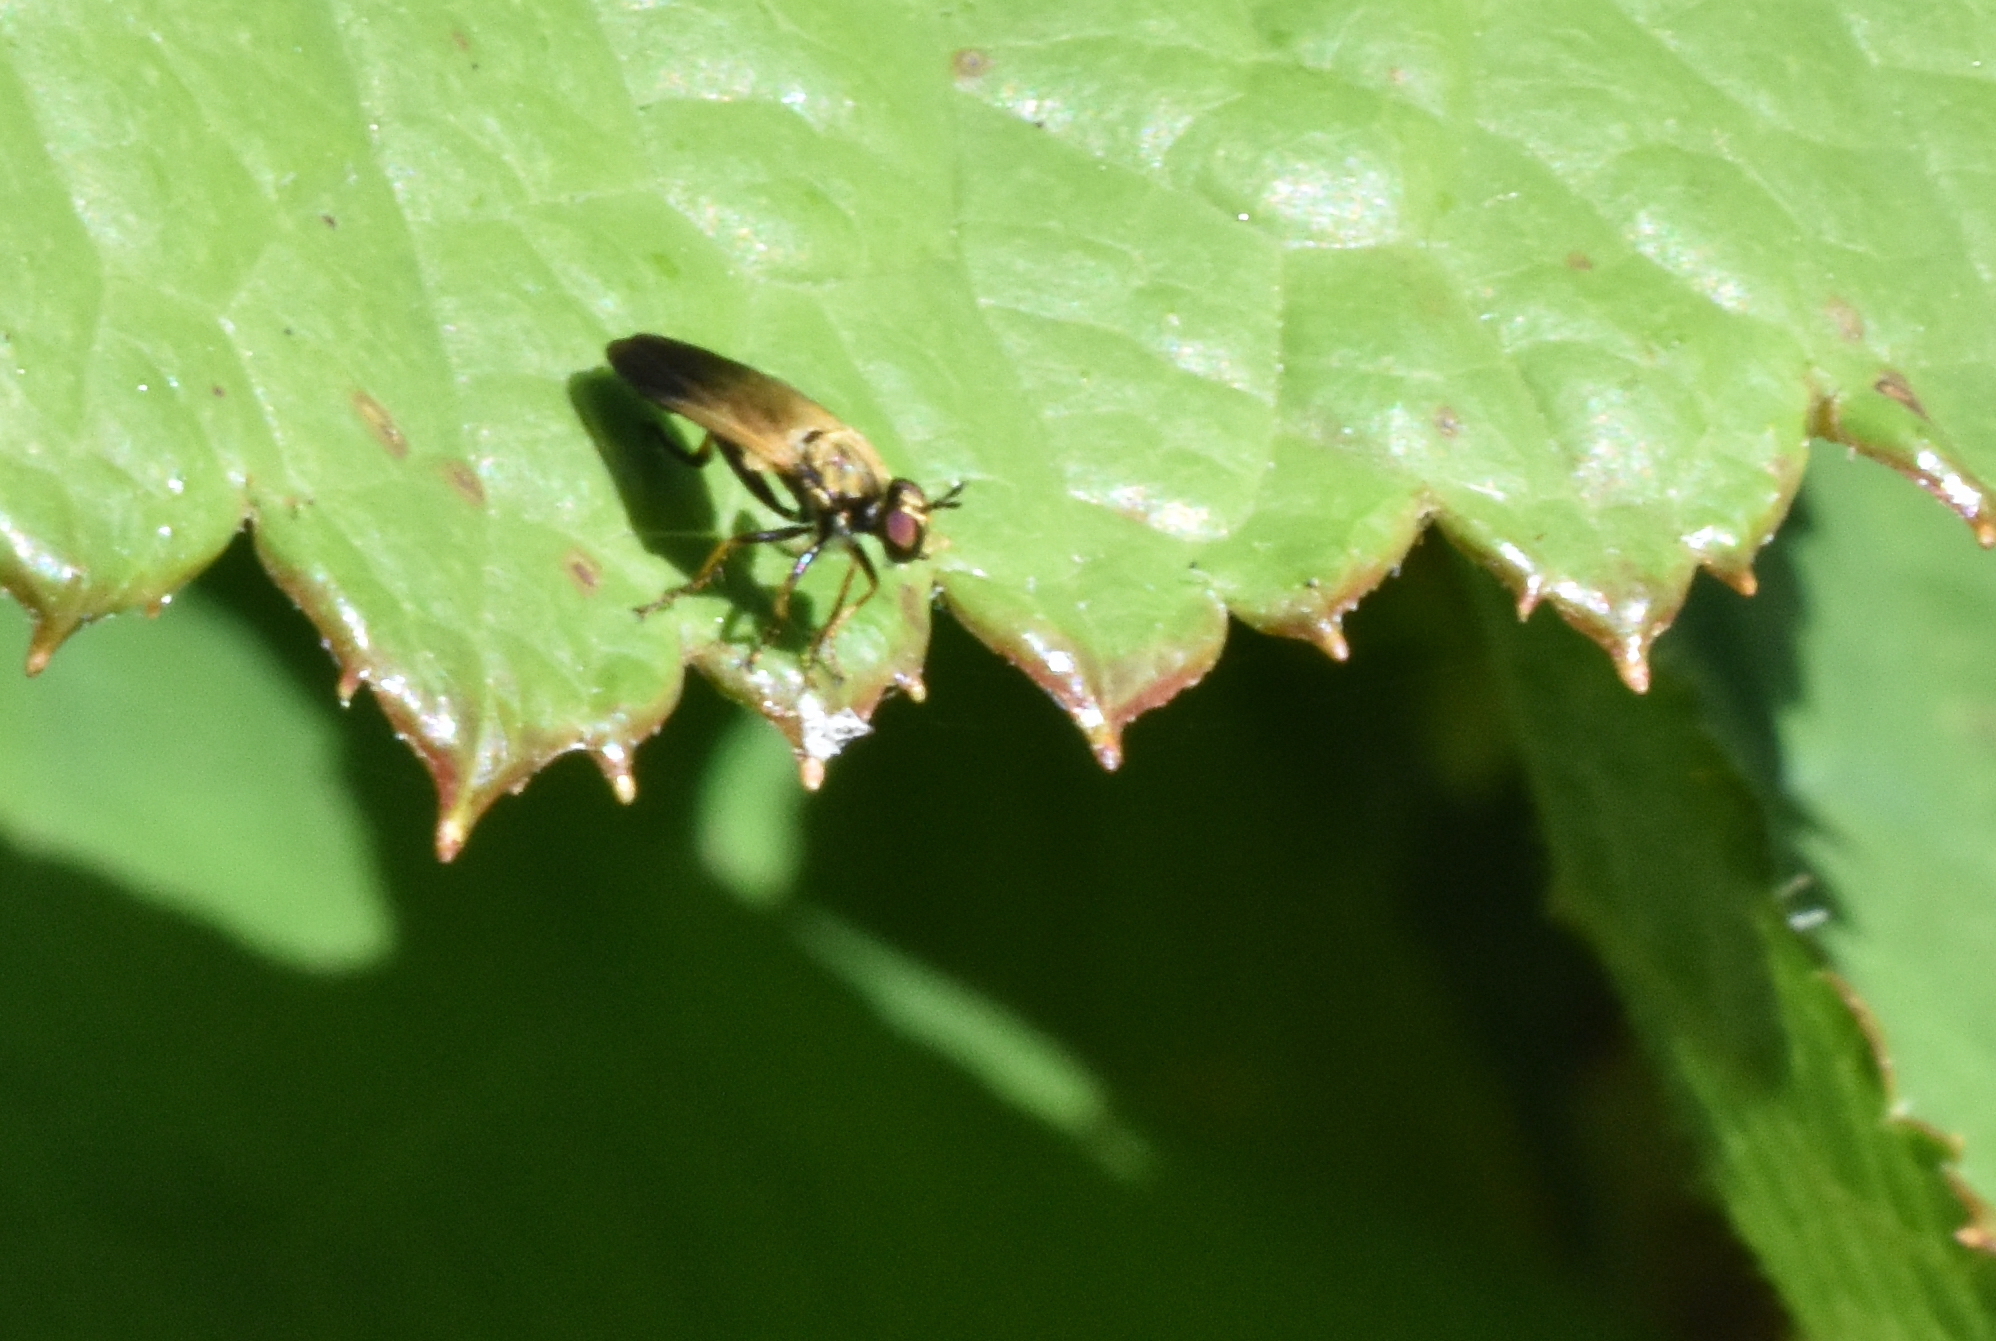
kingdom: Animalia
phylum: Arthropoda
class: Insecta
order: Diptera
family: Asilidae
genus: Eudioctria
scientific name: Eudioctria sackeni
